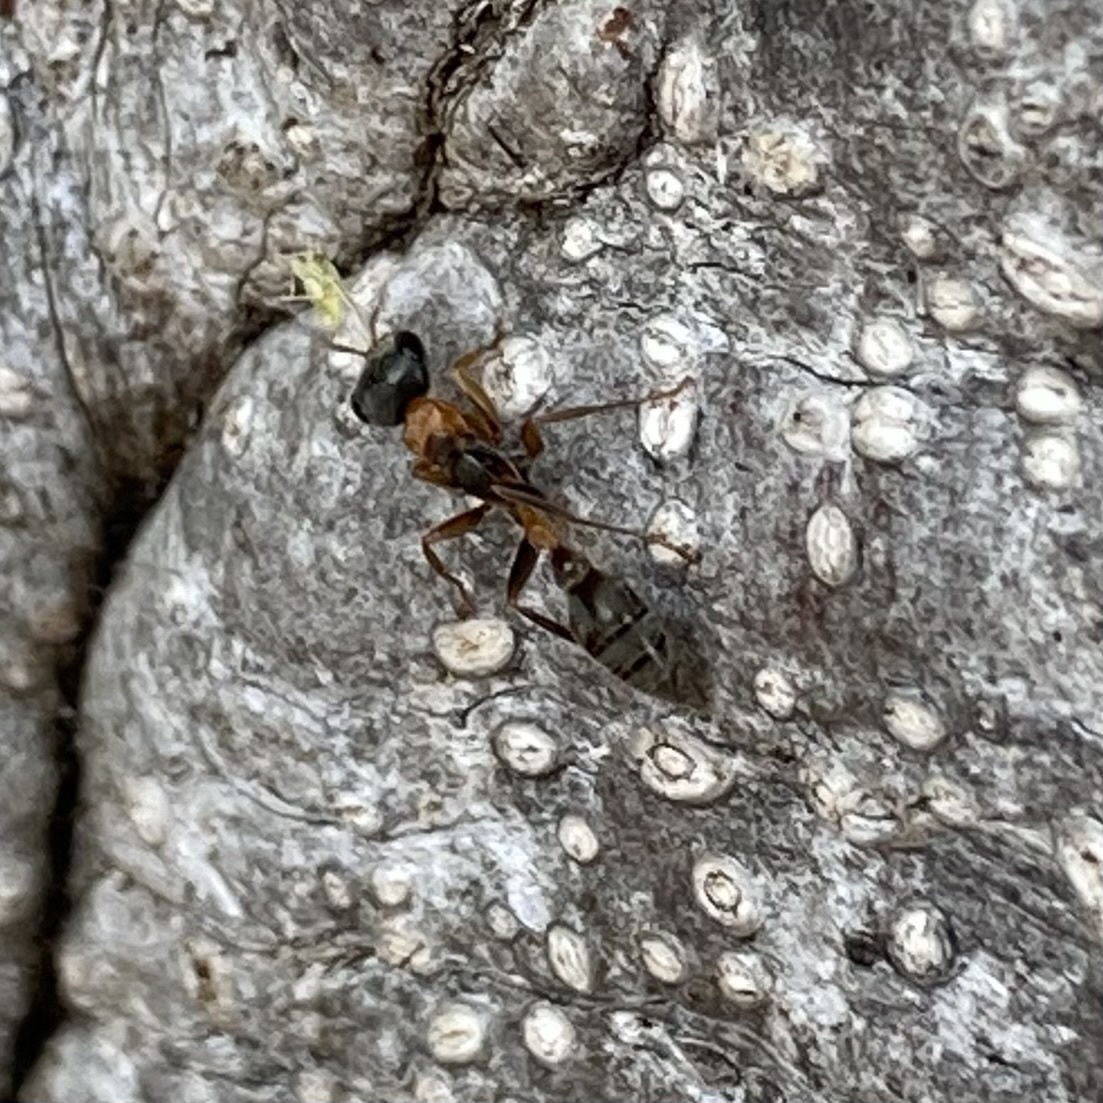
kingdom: Animalia
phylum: Arthropoda
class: Insecta
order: Hymenoptera
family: Formicidae
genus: Pseudomyrmex
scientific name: Pseudomyrmex gracilis
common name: Graceful twig ant
